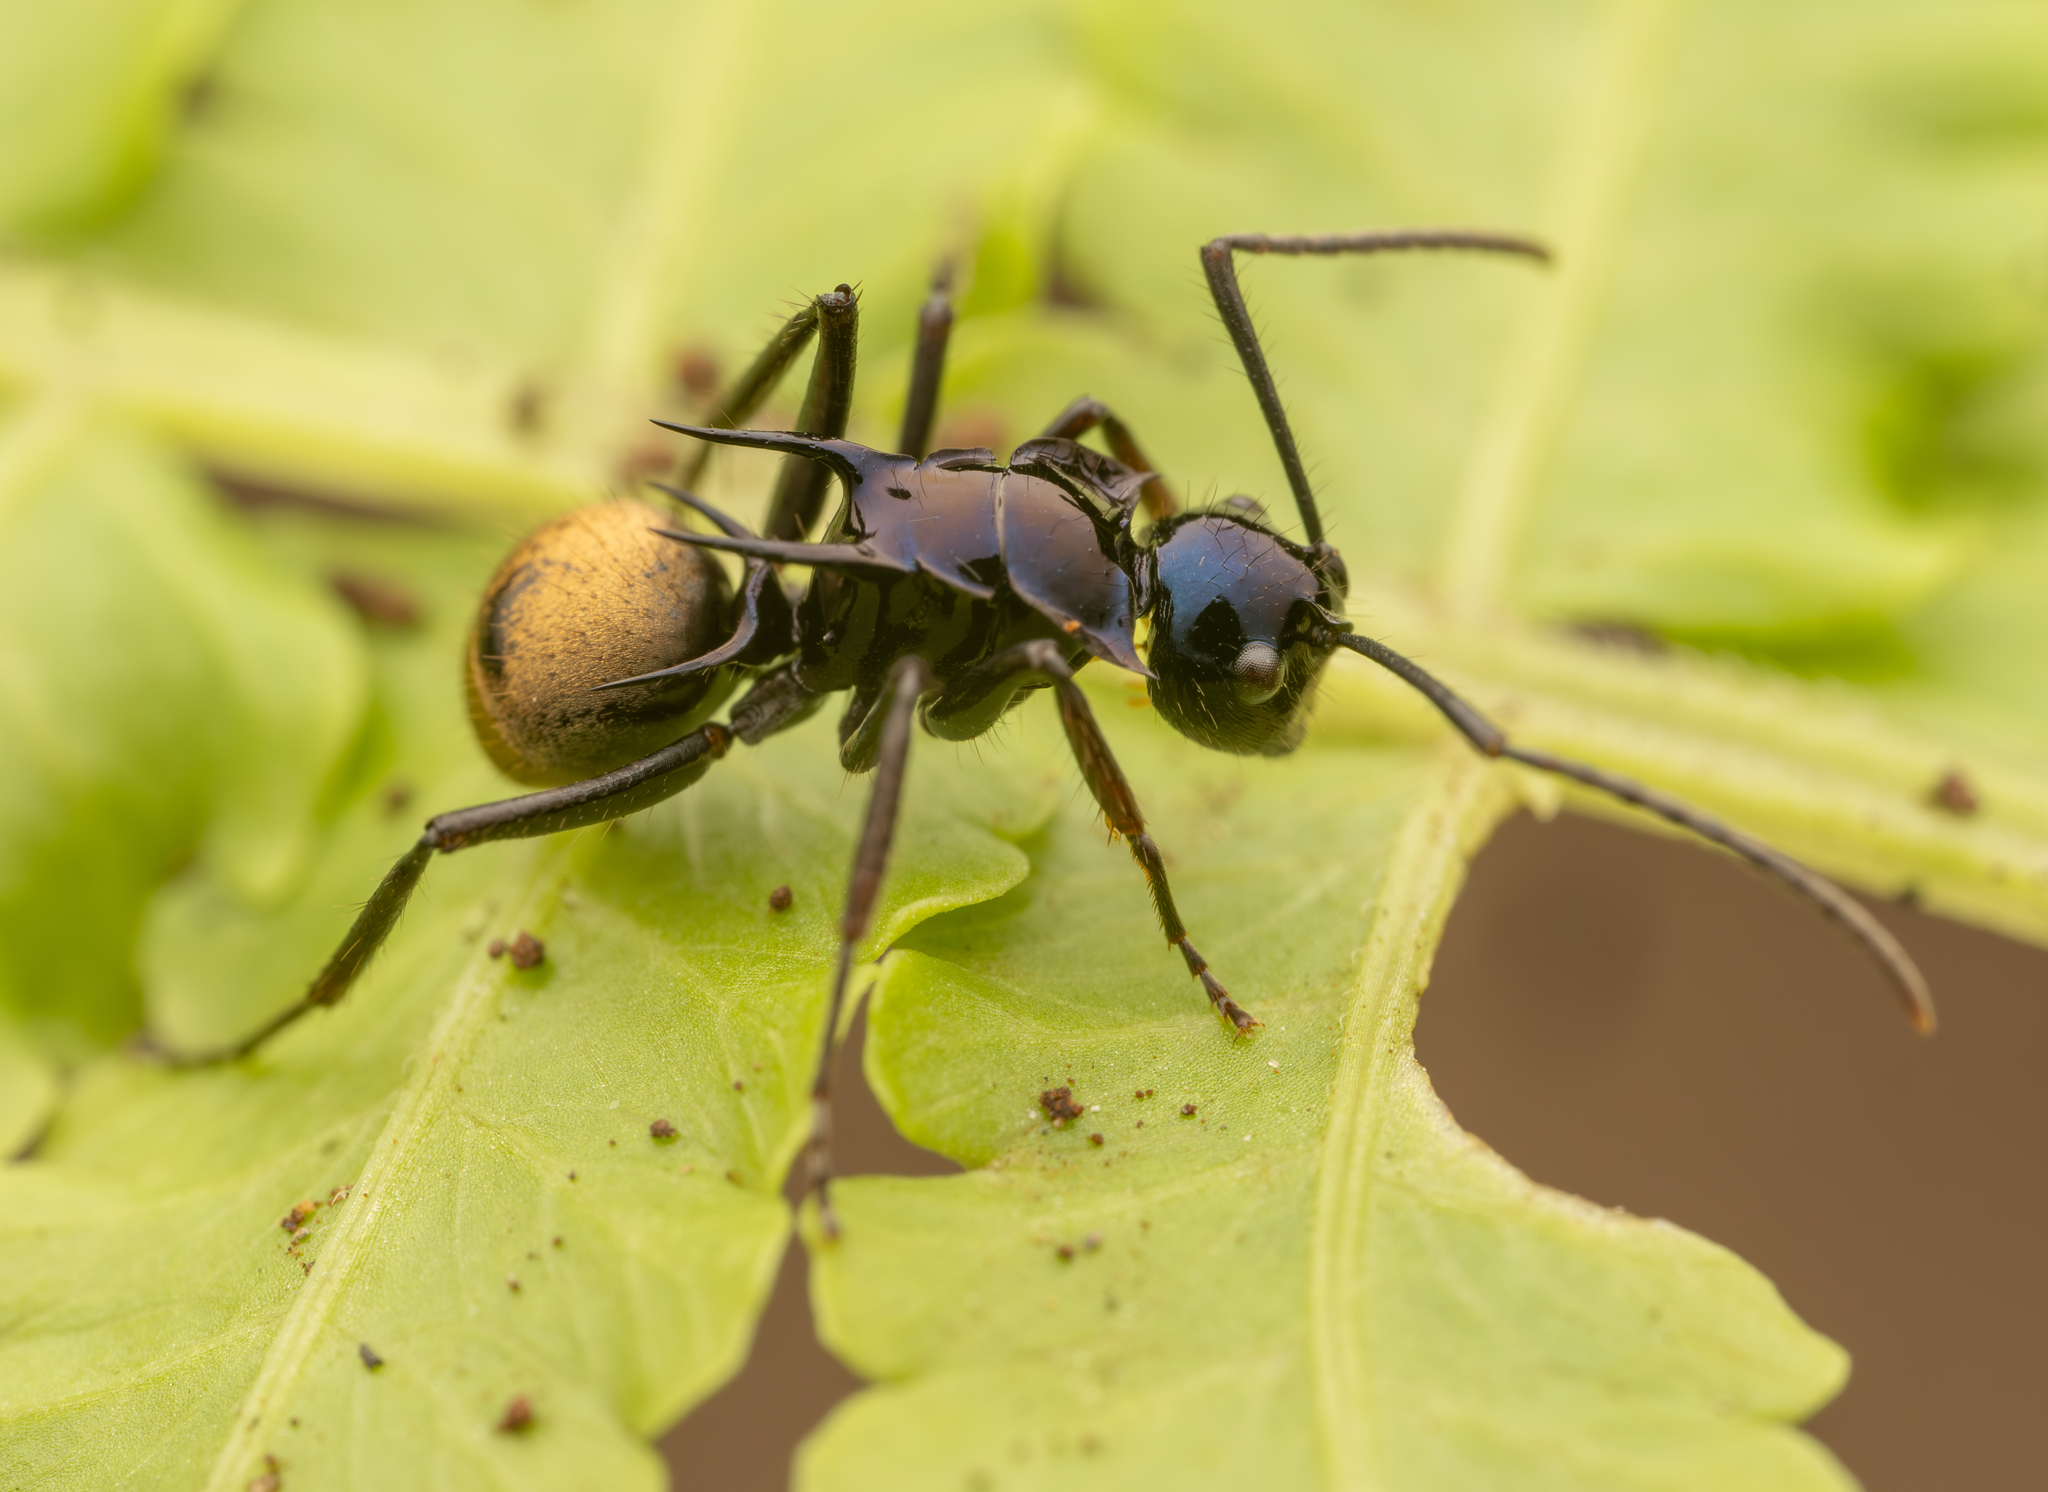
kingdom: Animalia
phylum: Arthropoda
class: Insecta
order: Hymenoptera
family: Formicidae
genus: Polyrhachis
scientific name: Polyrhachis loriai
